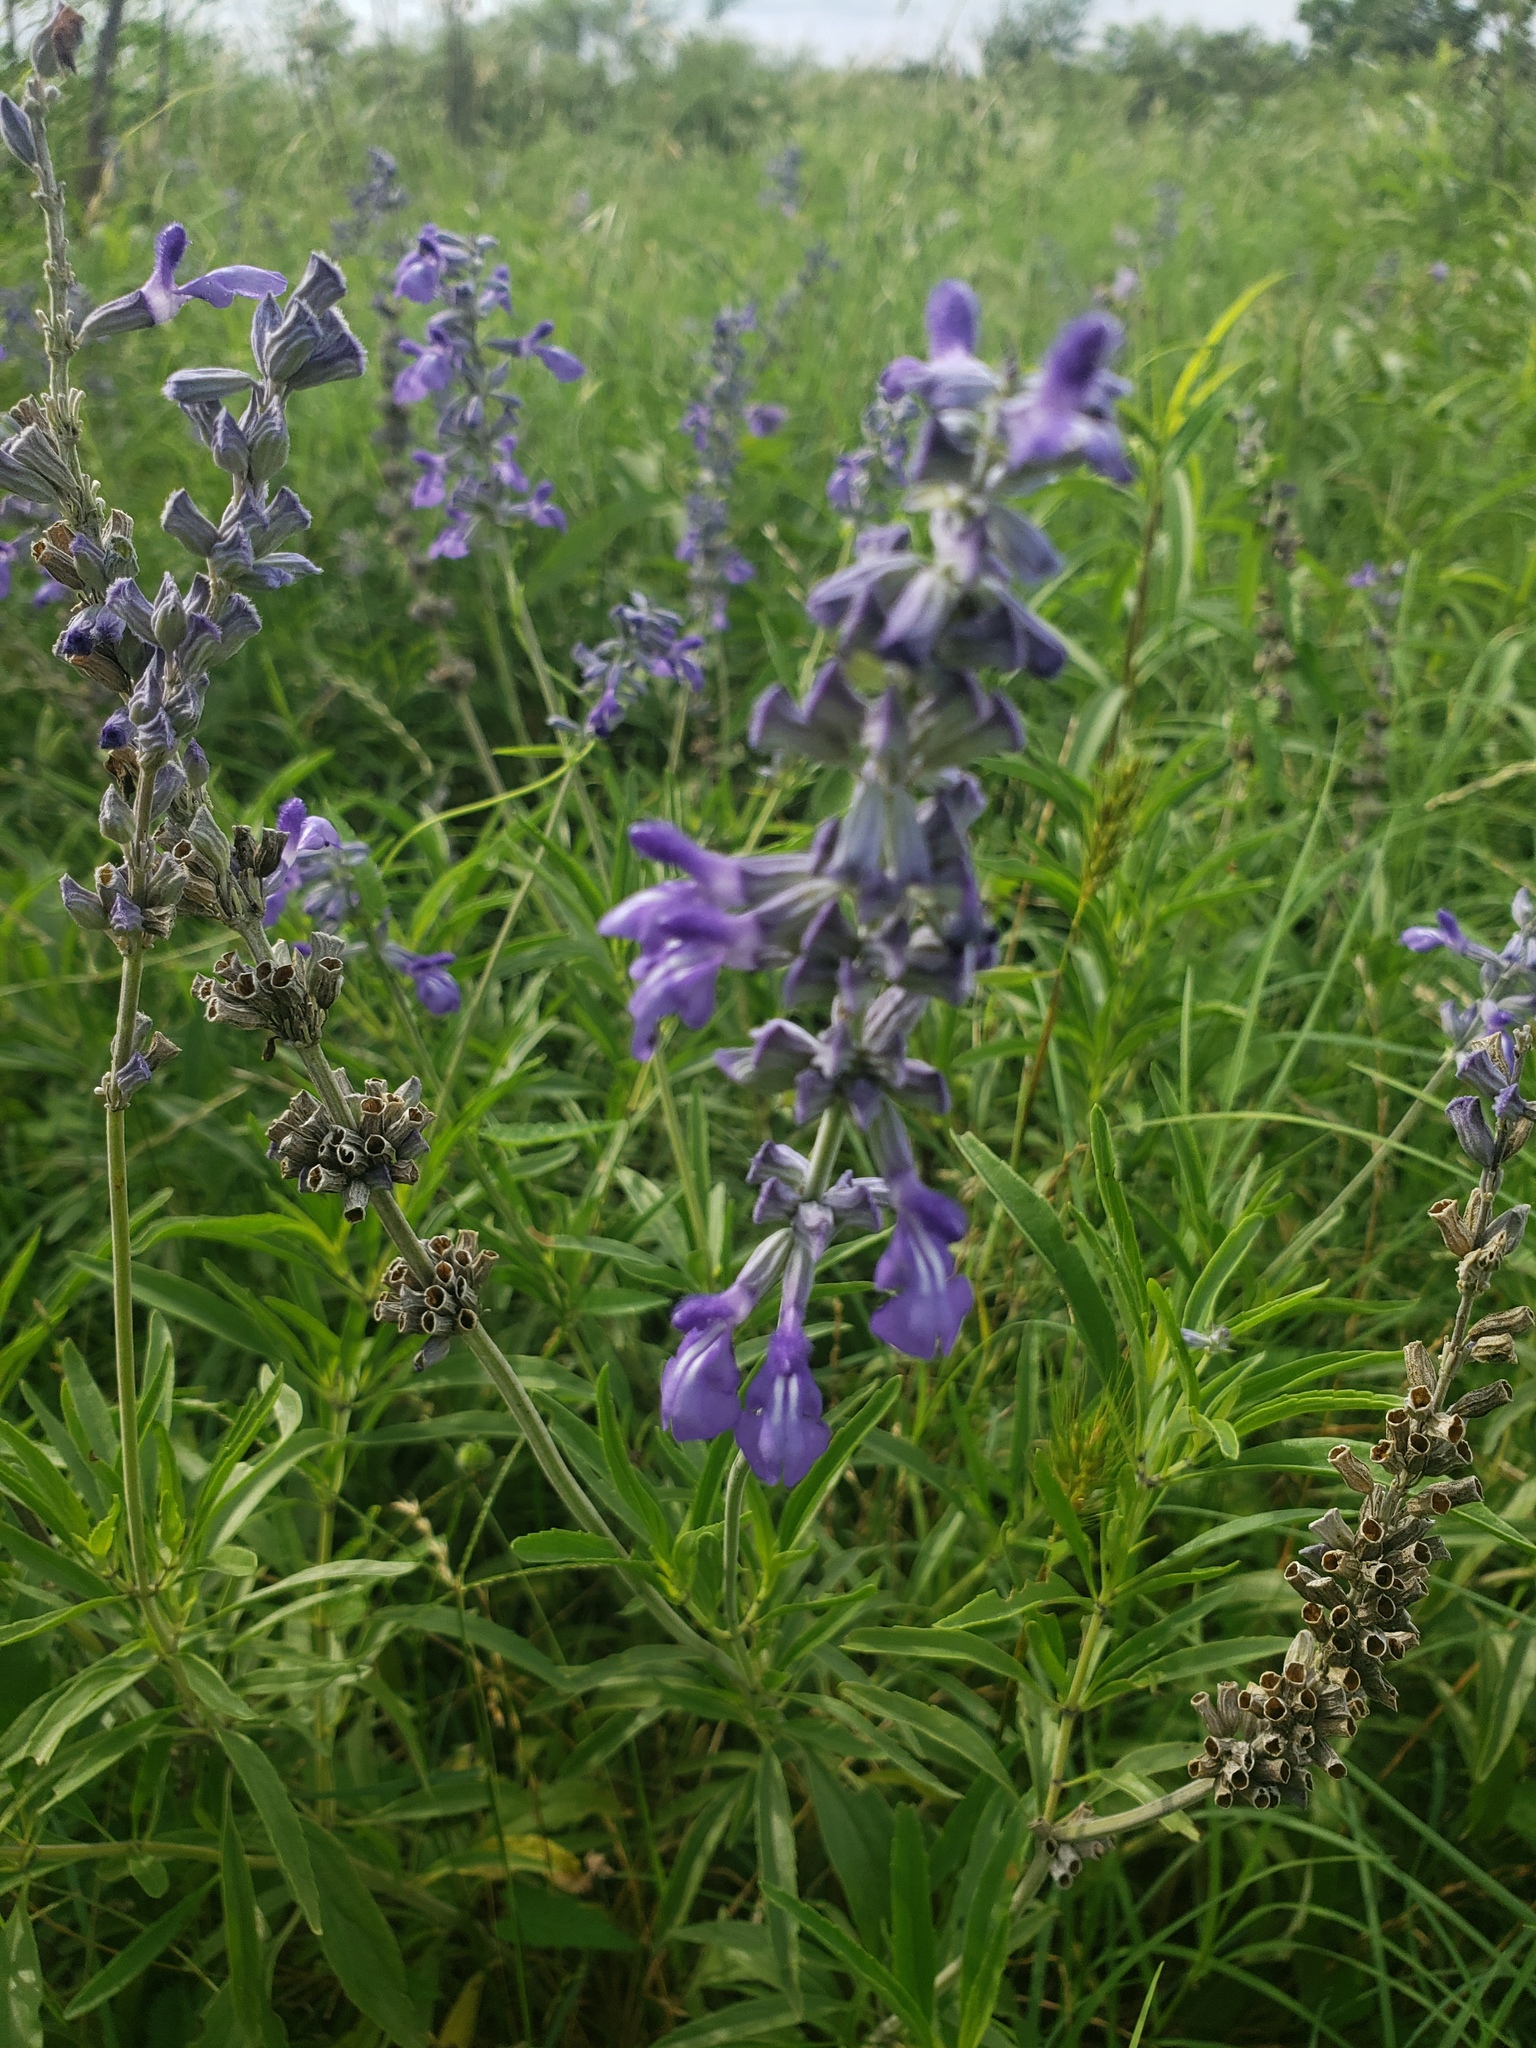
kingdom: Plantae
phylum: Tracheophyta
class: Magnoliopsida
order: Lamiales
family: Lamiaceae
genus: Salvia
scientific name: Salvia farinacea
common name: Mealy sage
